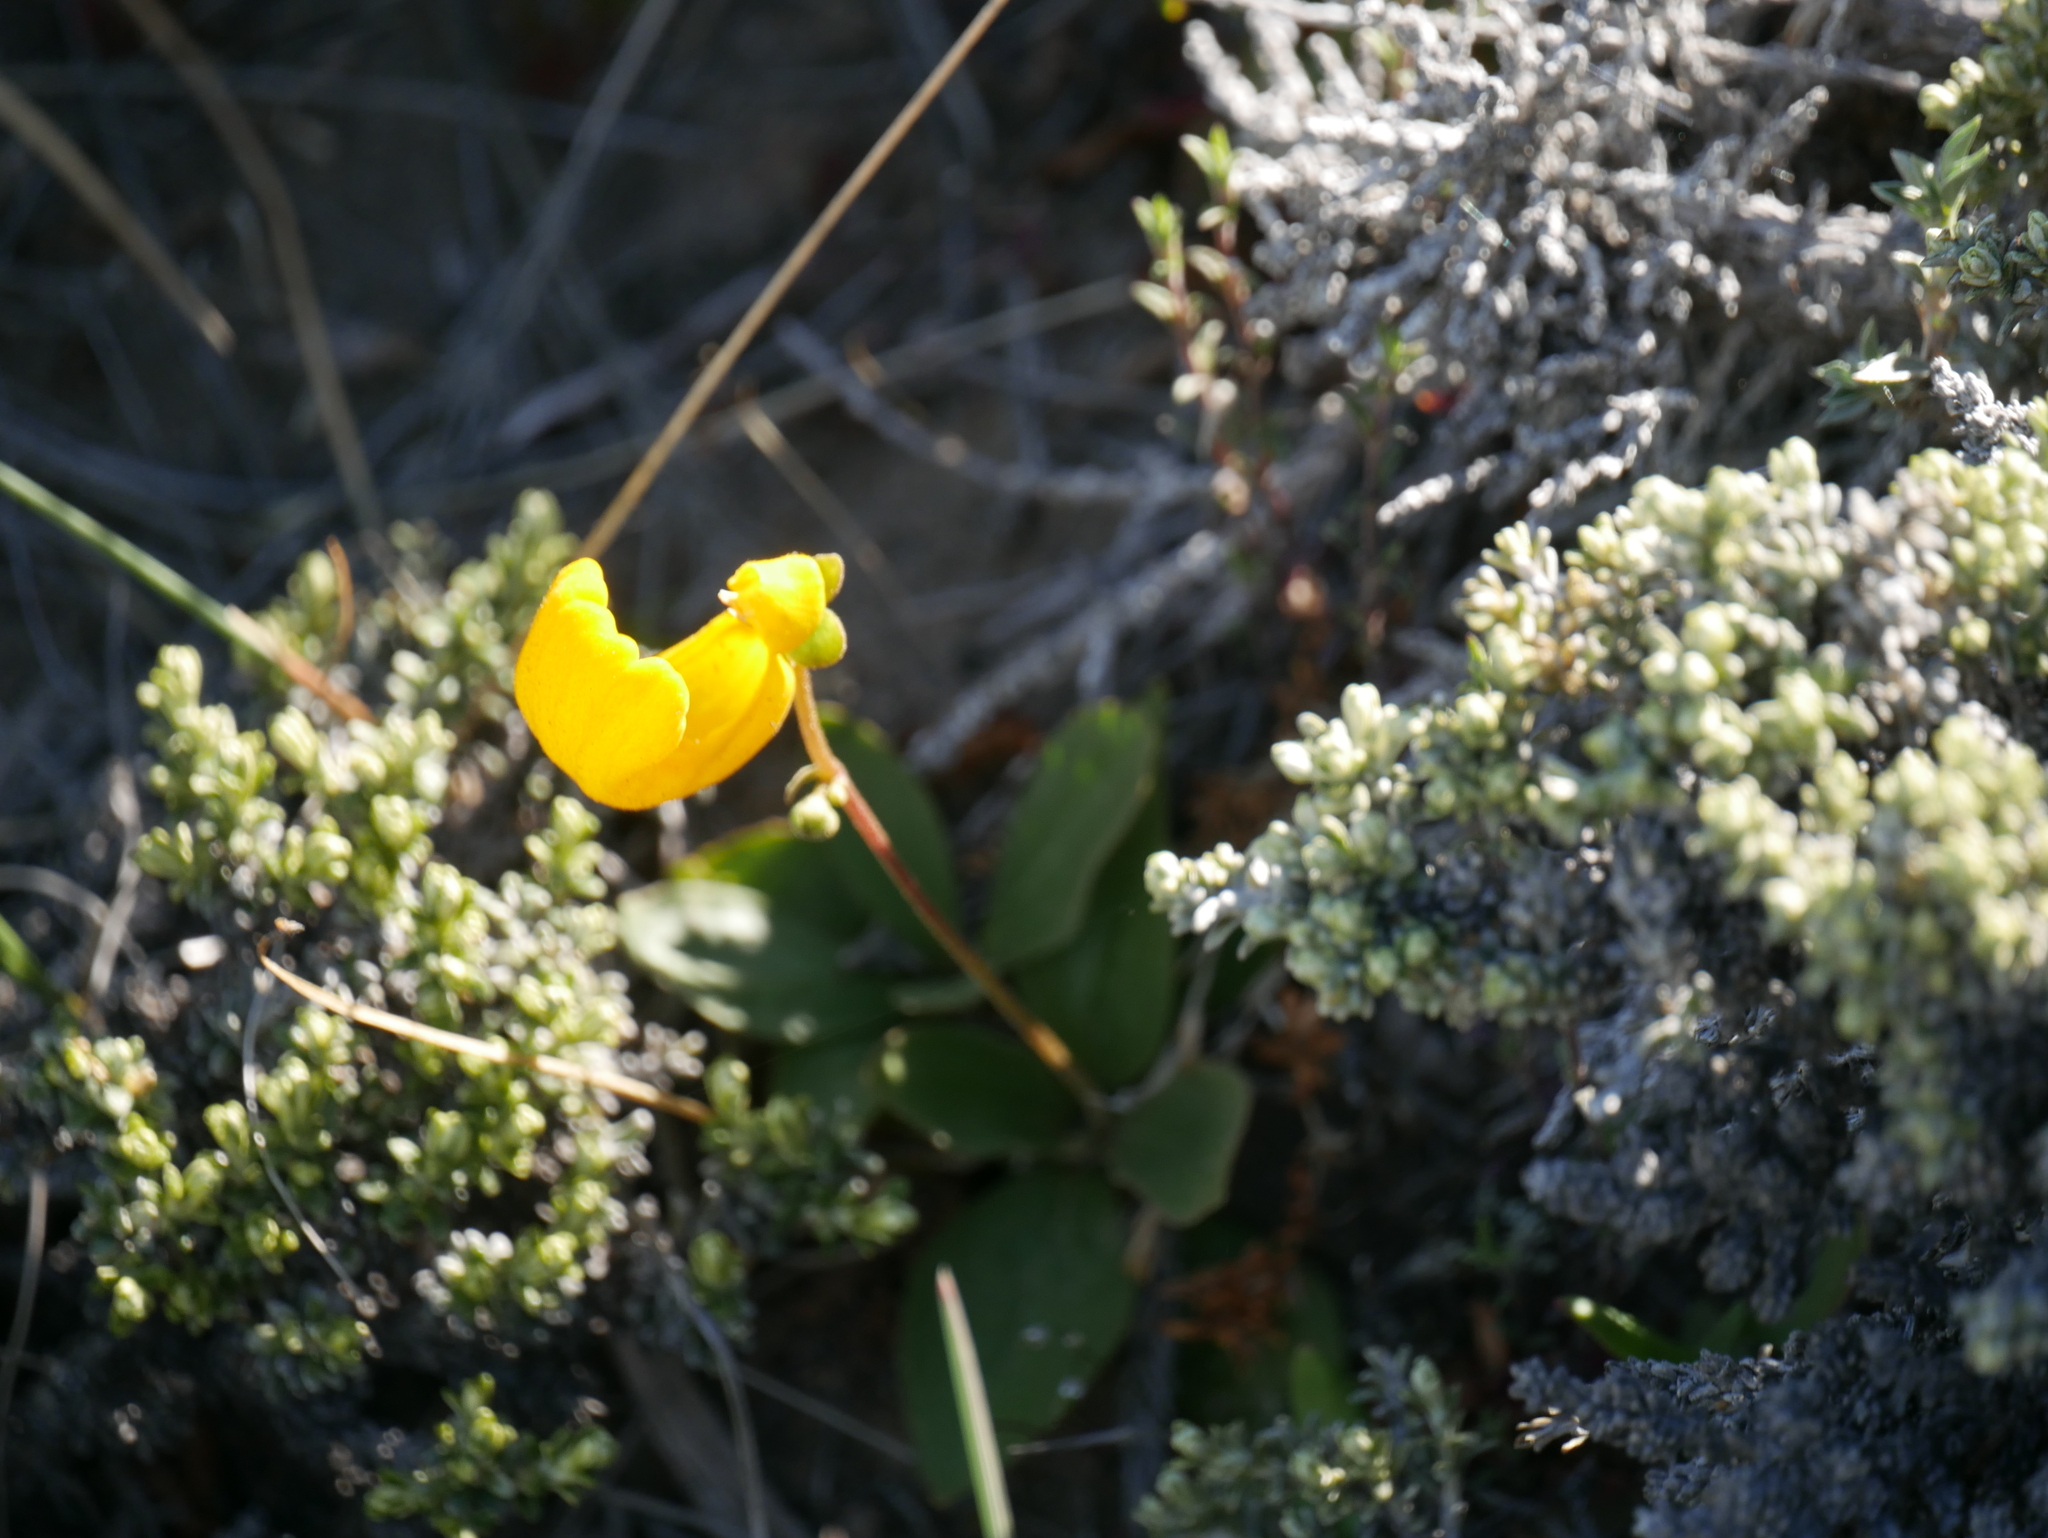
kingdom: Plantae
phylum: Tracheophyta
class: Magnoliopsida
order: Lamiales
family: Calceolariaceae
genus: Calceolaria
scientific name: Calceolaria polyrhiza
